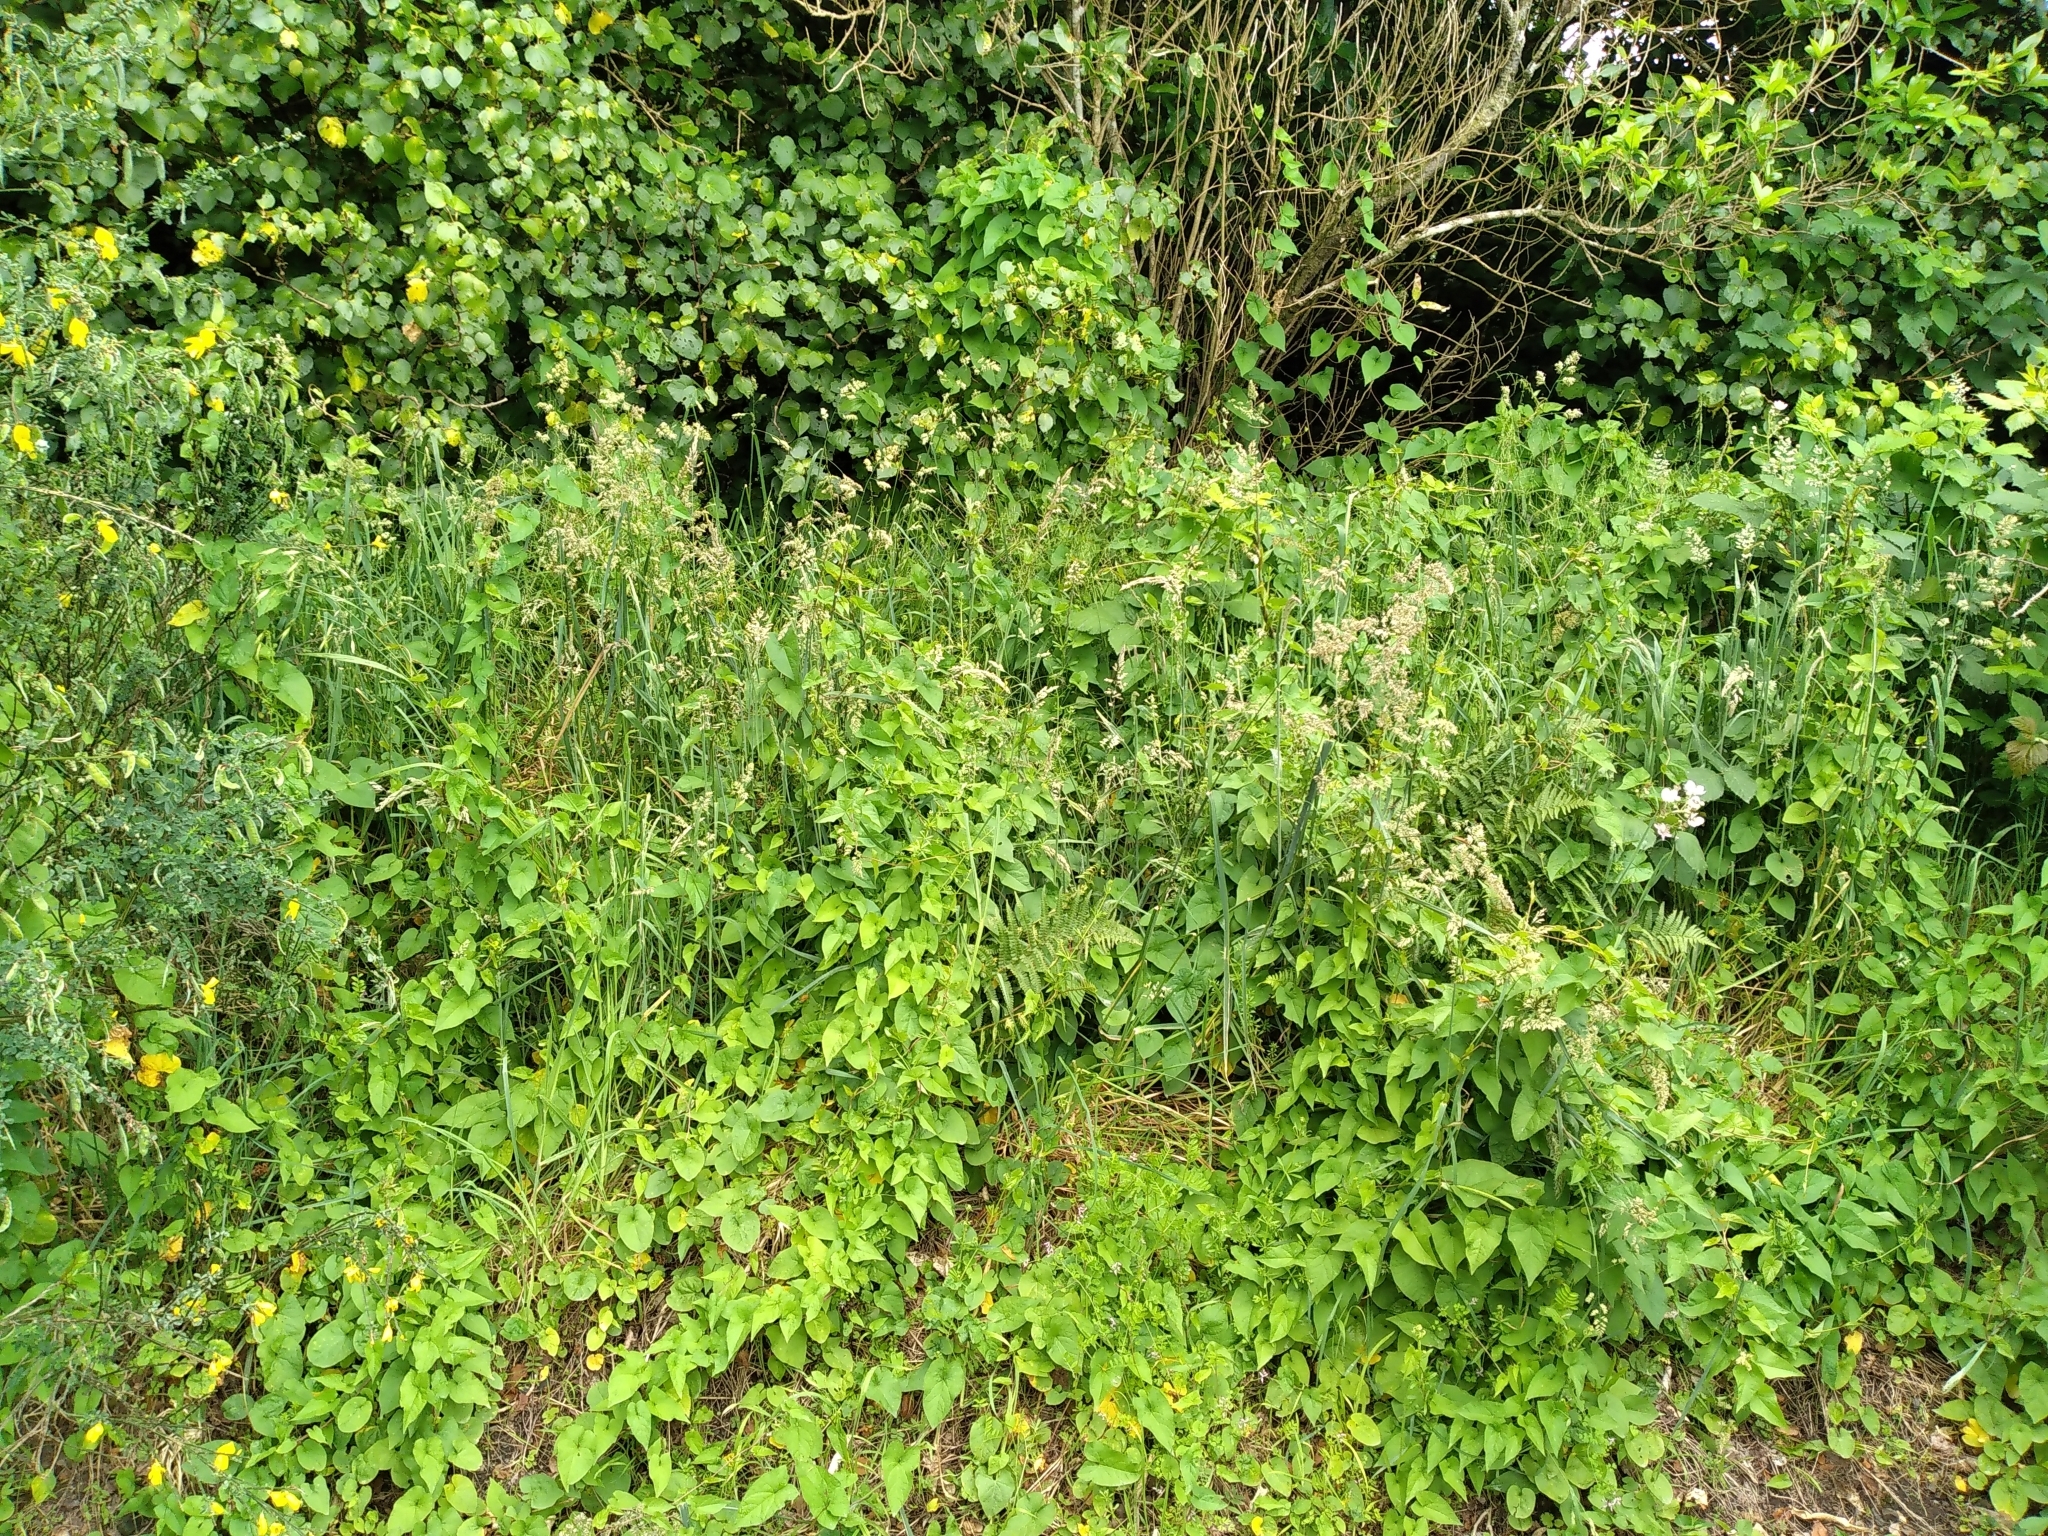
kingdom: Plantae
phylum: Tracheophyta
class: Polypodiopsida
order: Polypodiales
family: Dryopteridaceae
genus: Dryopteris
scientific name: Dryopteris filix-mas
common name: Male fern
